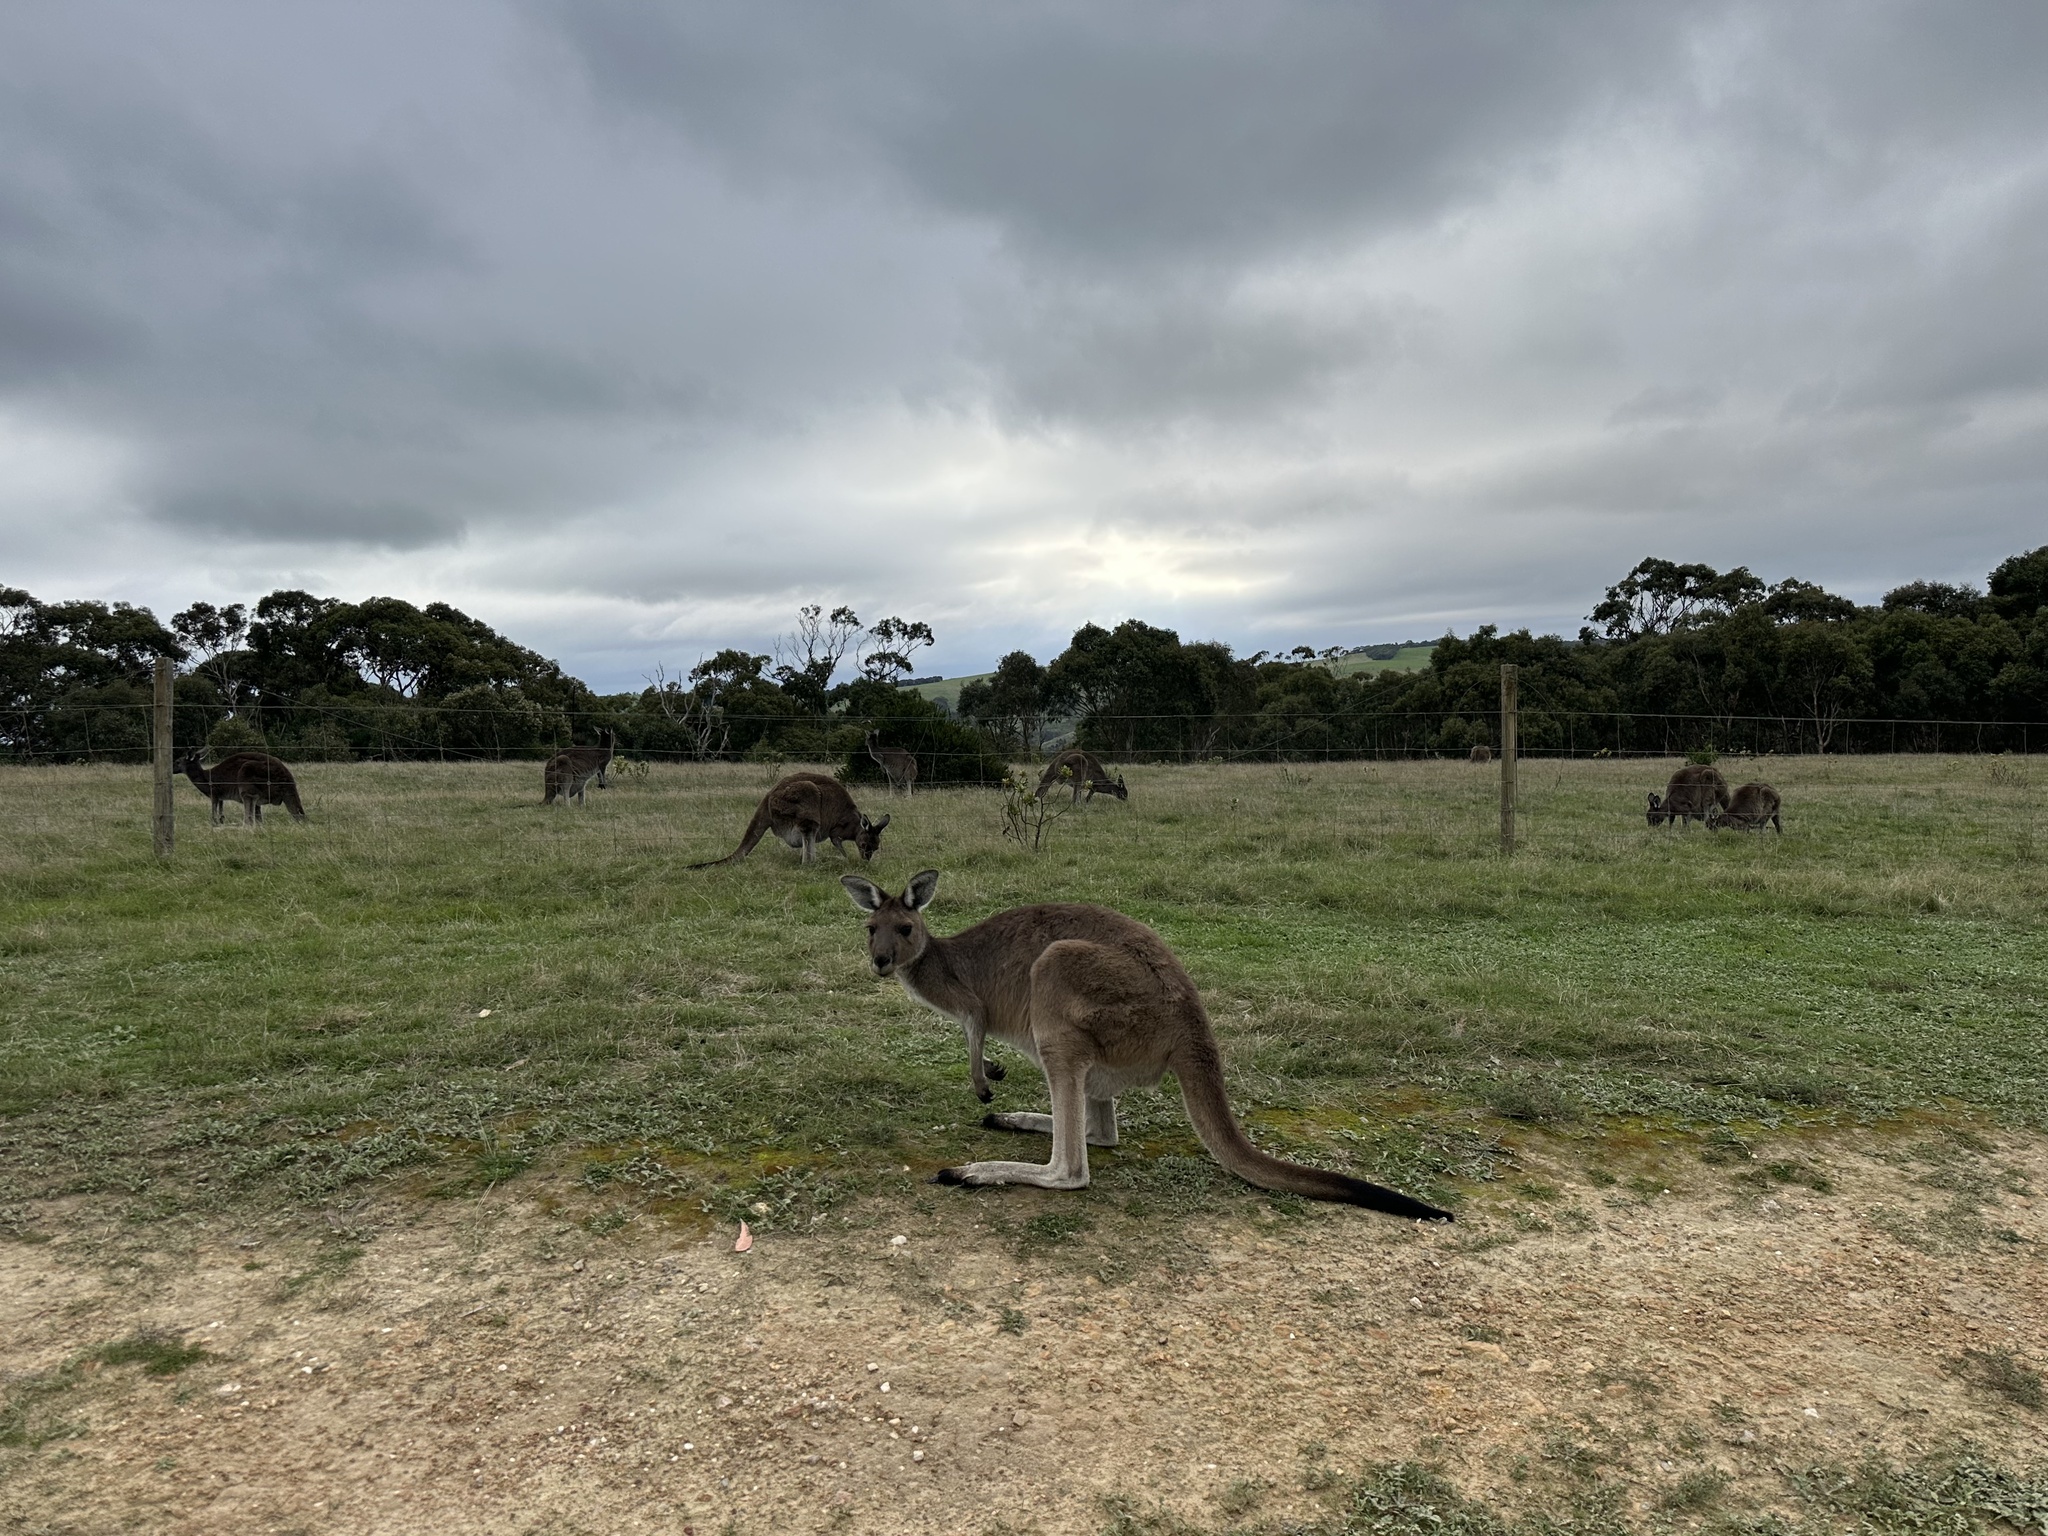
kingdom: Animalia
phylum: Chordata
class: Mammalia
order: Diprotodontia
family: Macropodidae
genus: Macropus
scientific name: Macropus fuliginosus
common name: Western grey kangaroo
